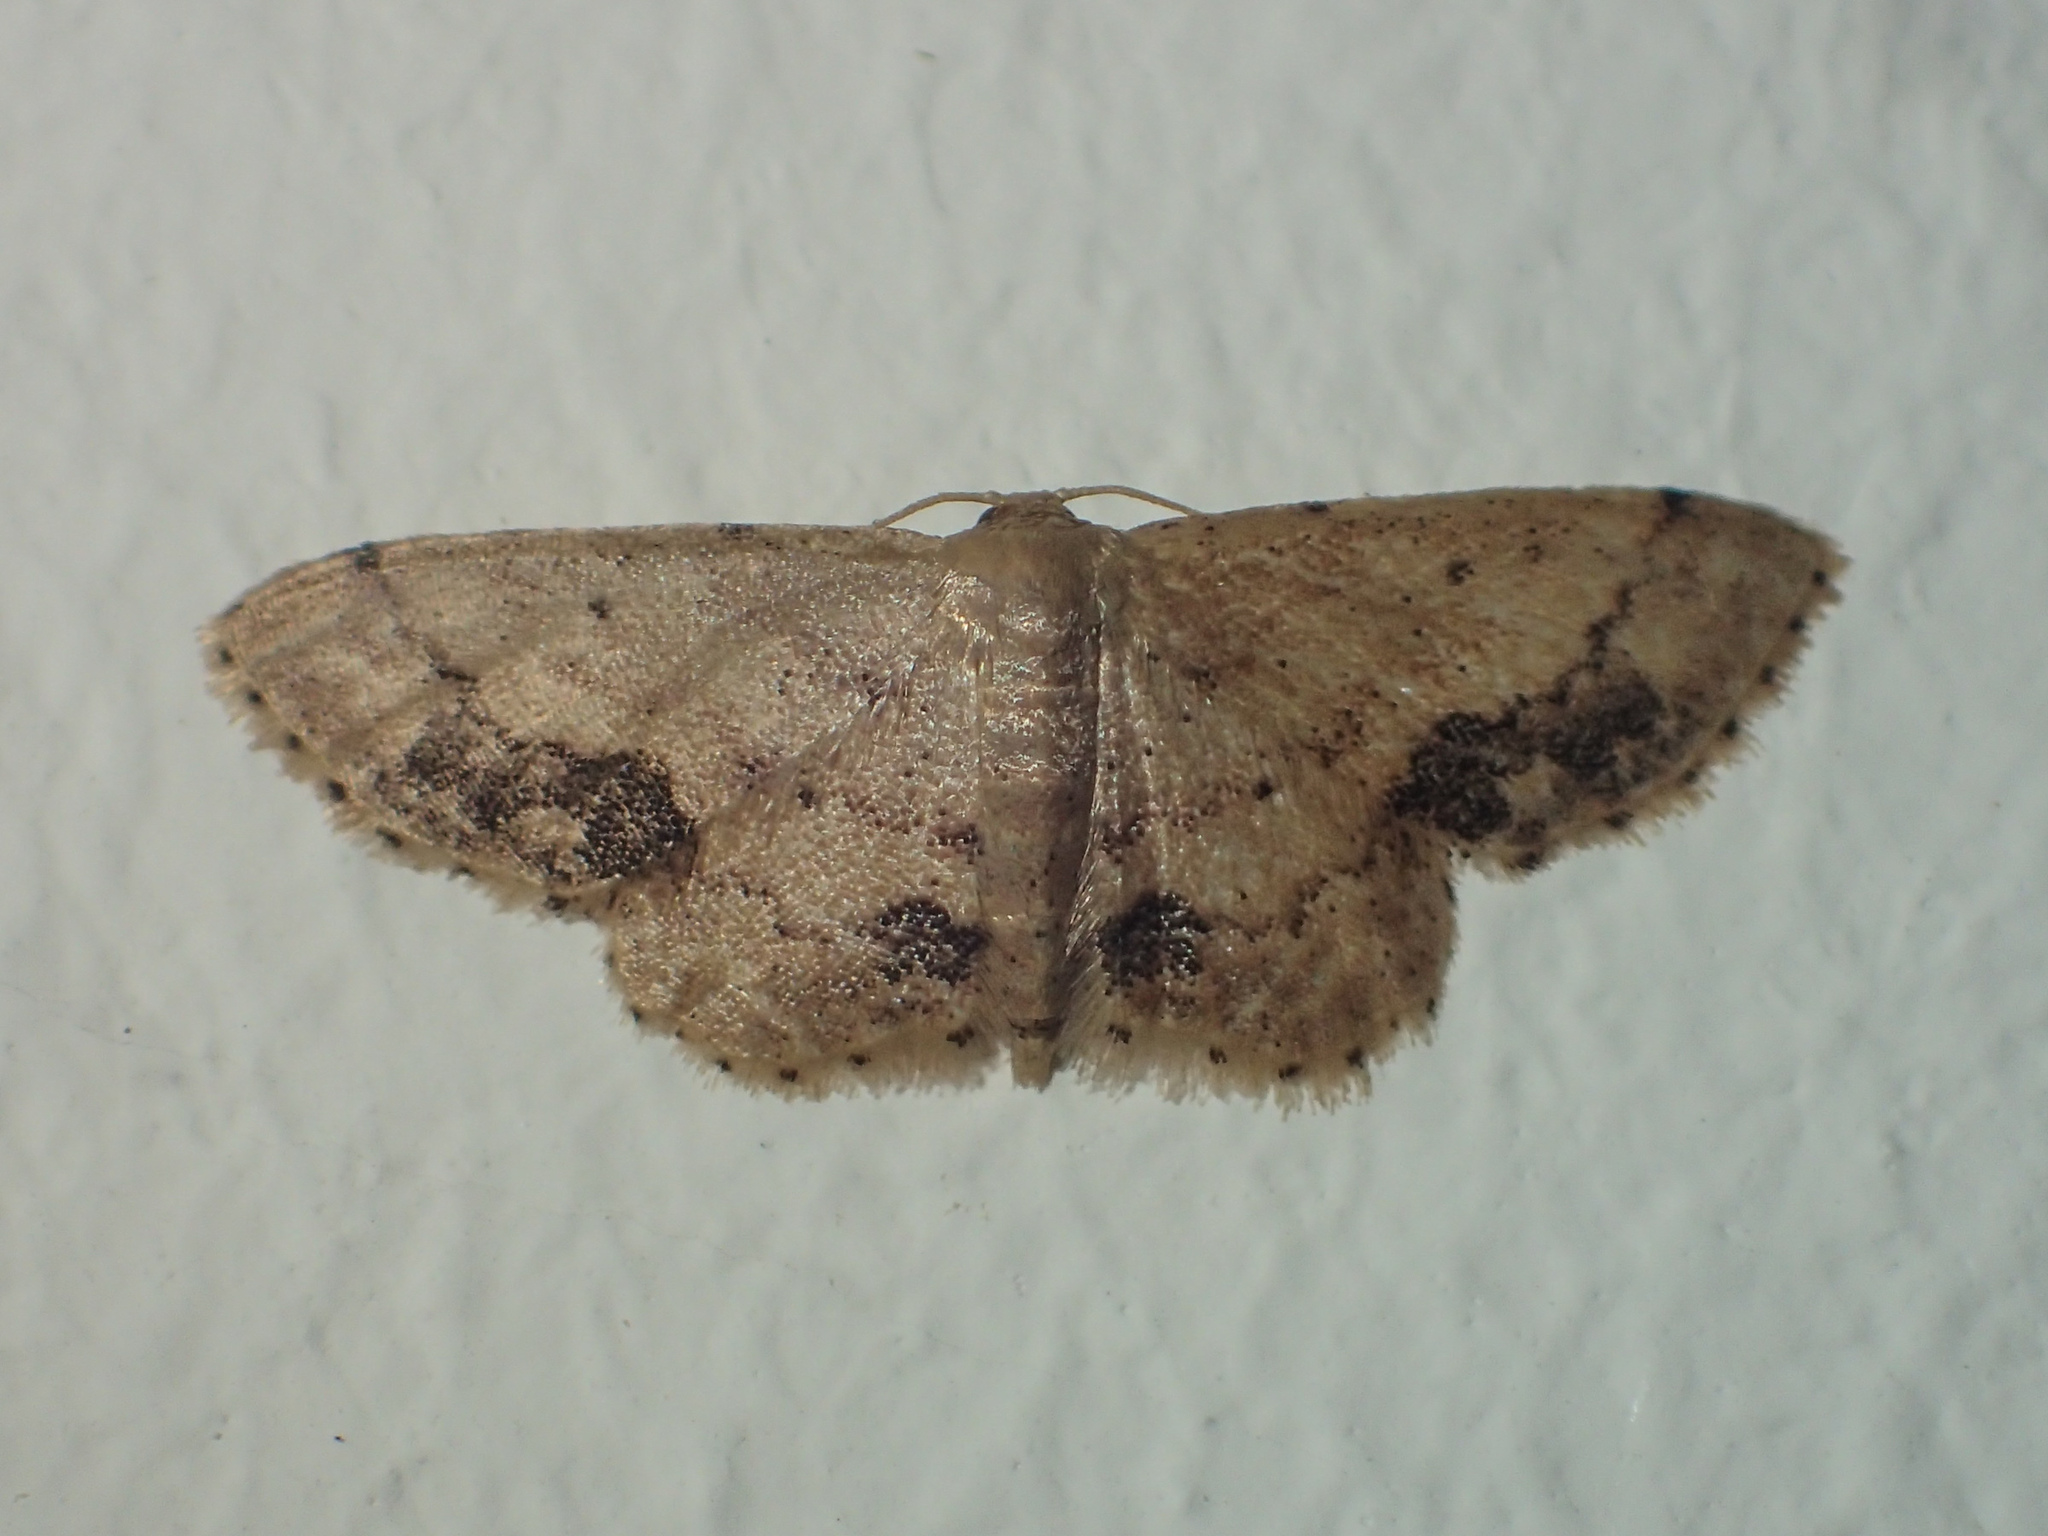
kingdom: Animalia
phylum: Arthropoda
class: Insecta
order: Lepidoptera
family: Geometridae
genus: Idaea
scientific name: Idaea chotaria
